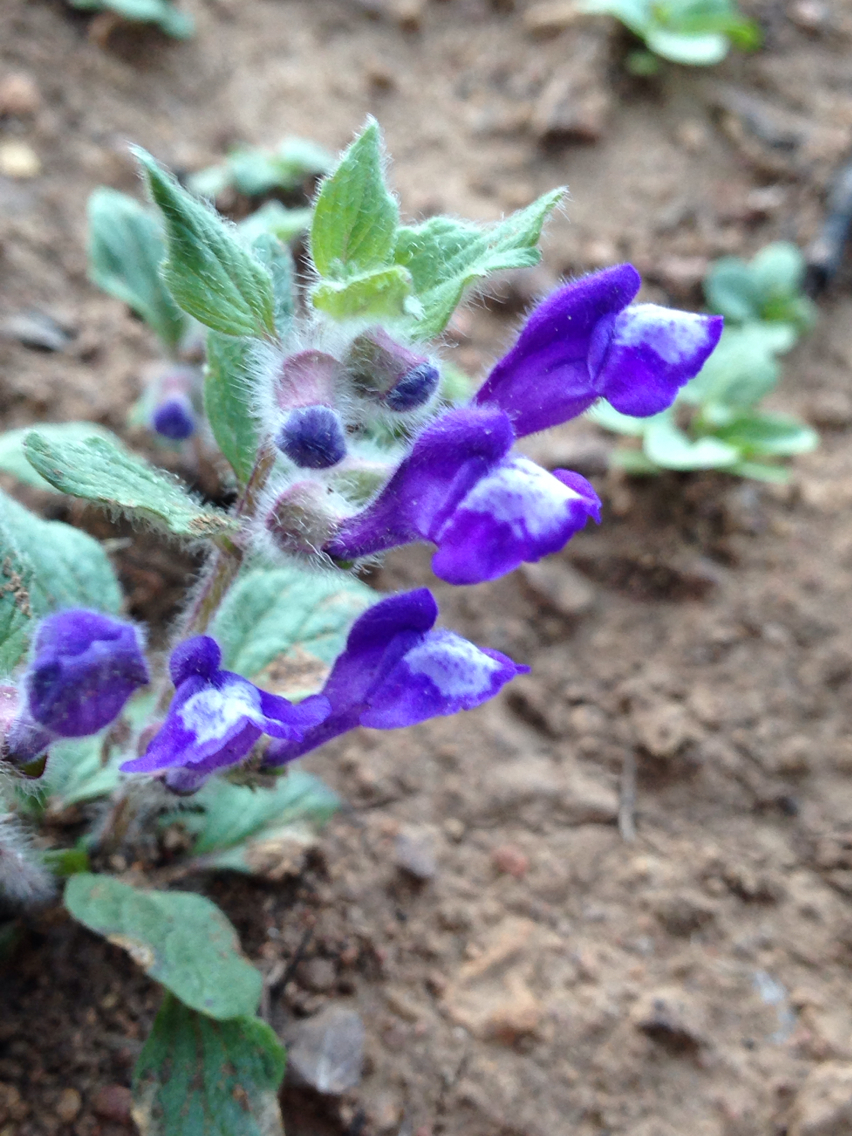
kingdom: Plantae
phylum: Tracheophyta
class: Magnoliopsida
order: Lamiales
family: Lamiaceae
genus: Scutellaria
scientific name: Scutellaria tuberosa
